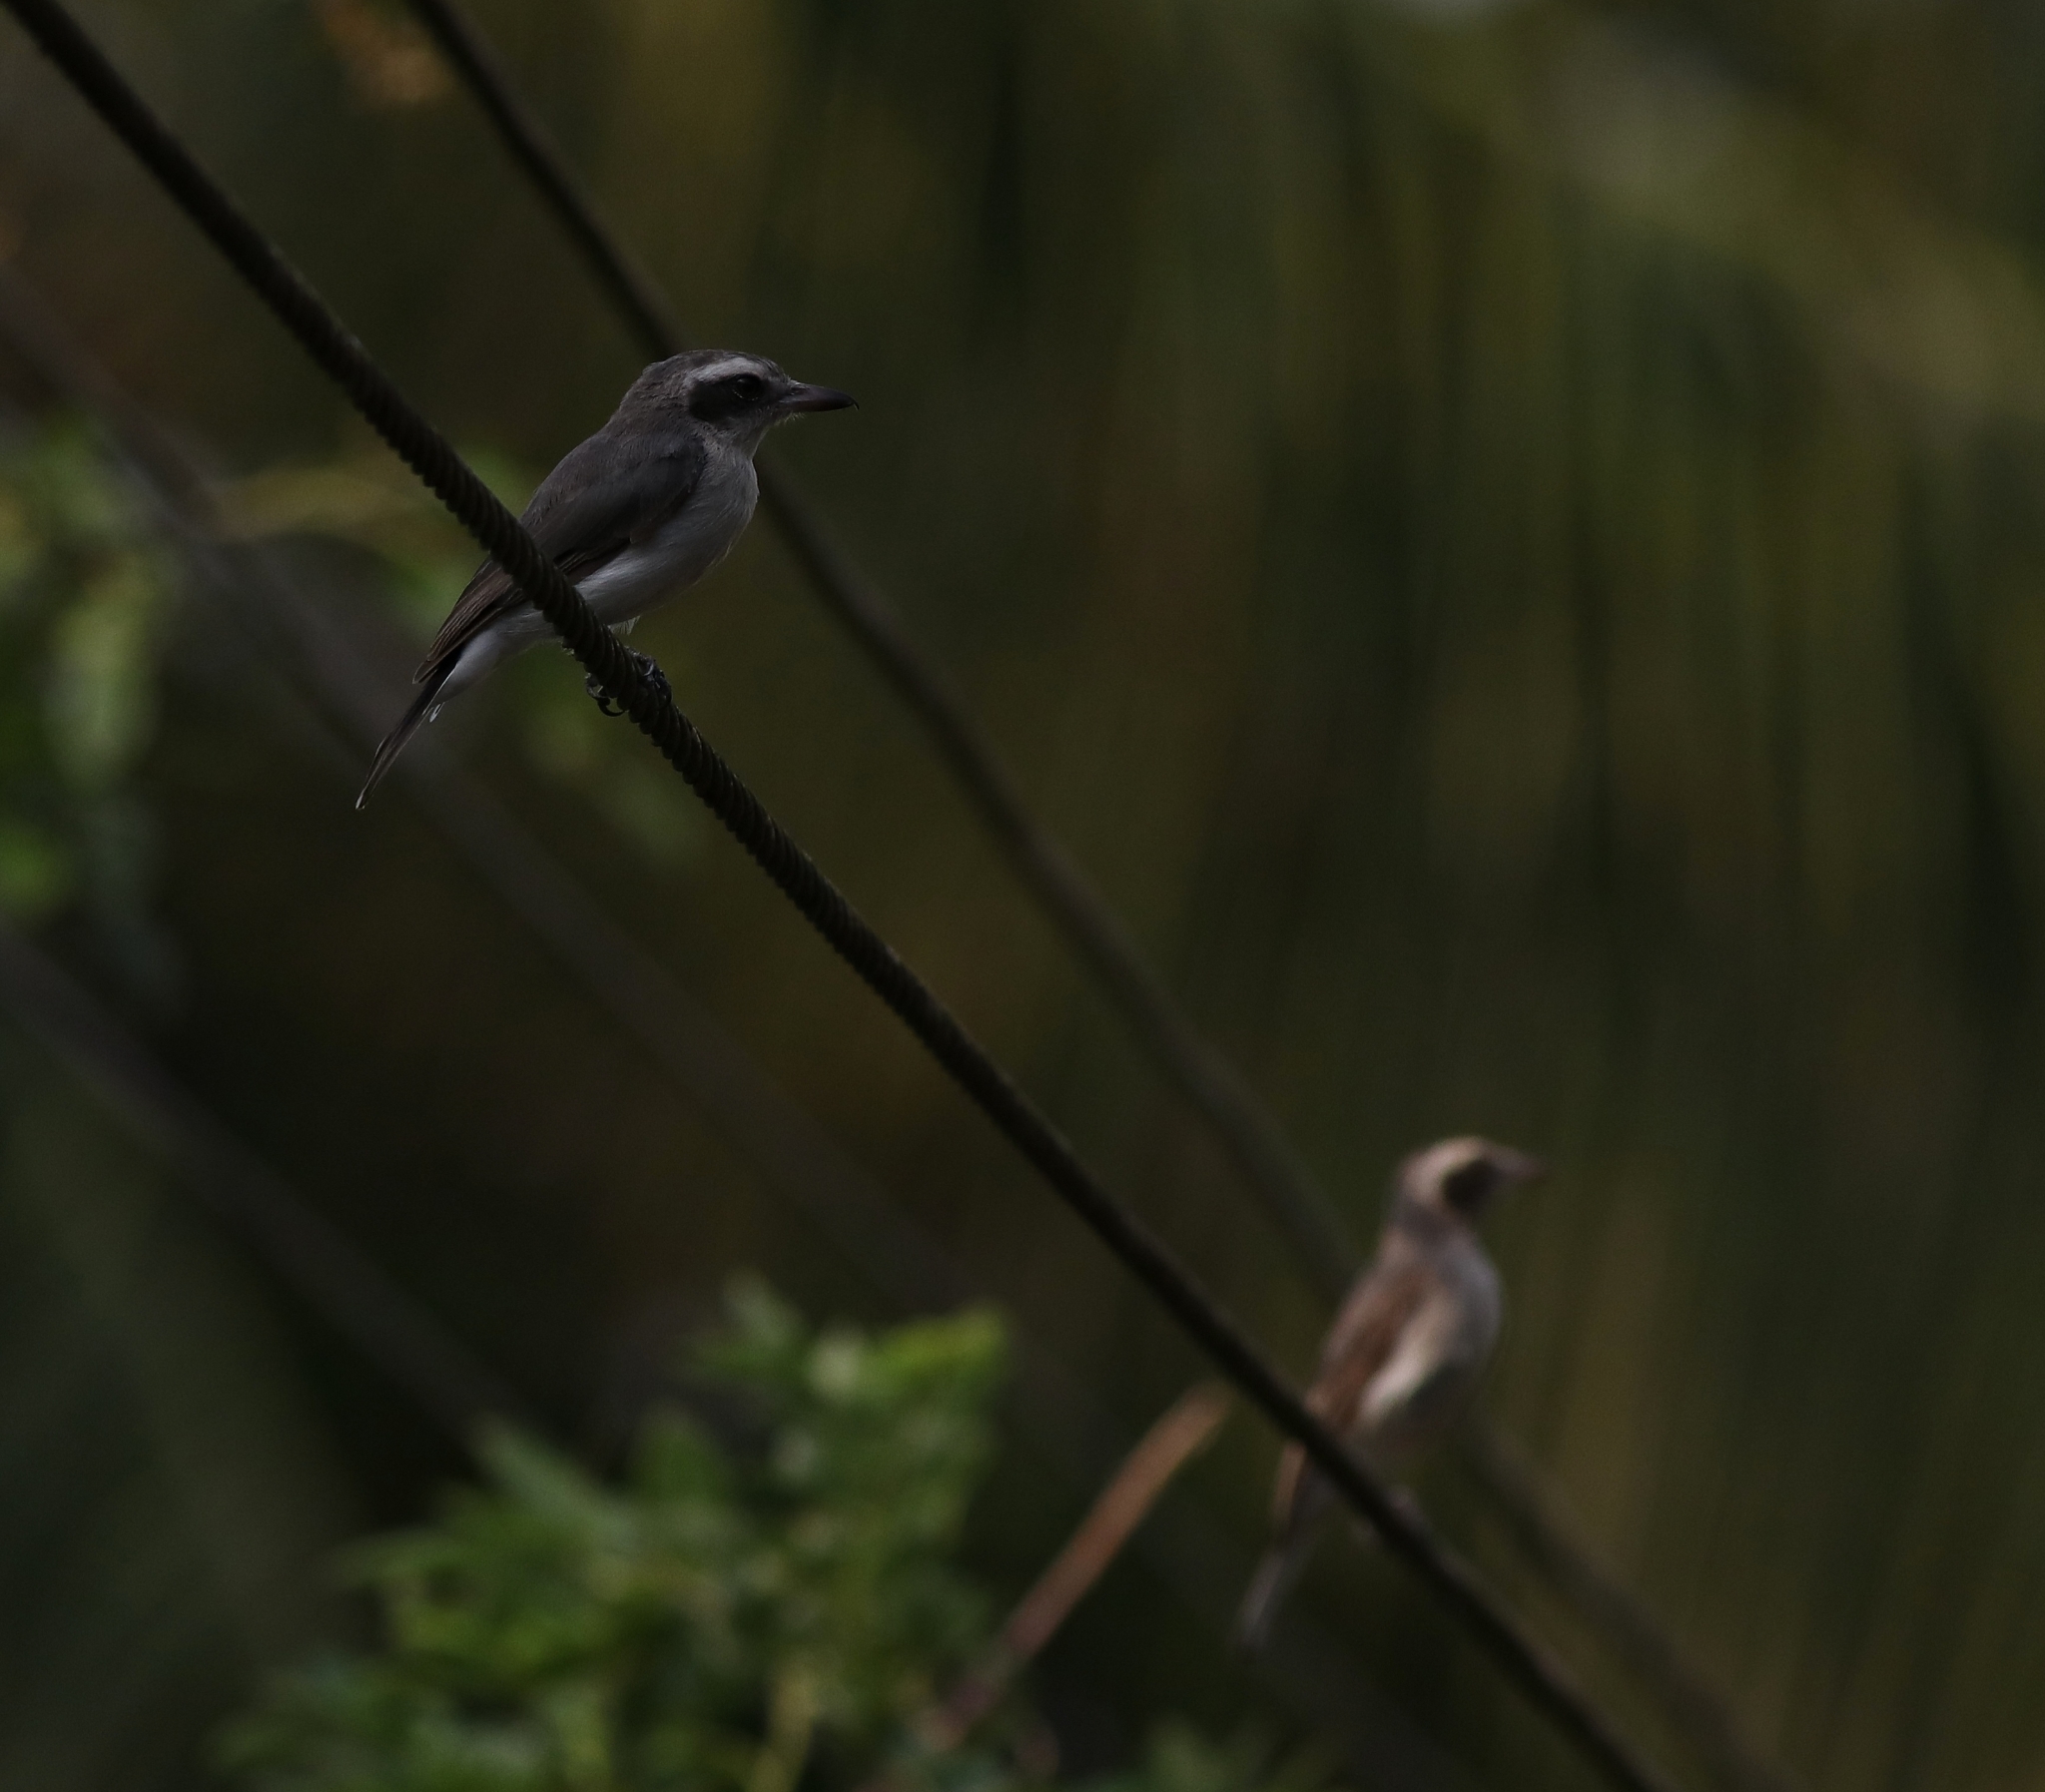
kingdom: Animalia
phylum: Chordata
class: Aves
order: Passeriformes
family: Tephrodornithidae
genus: Tephrodornis
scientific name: Tephrodornis pondicerianus
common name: Common woodshrike
